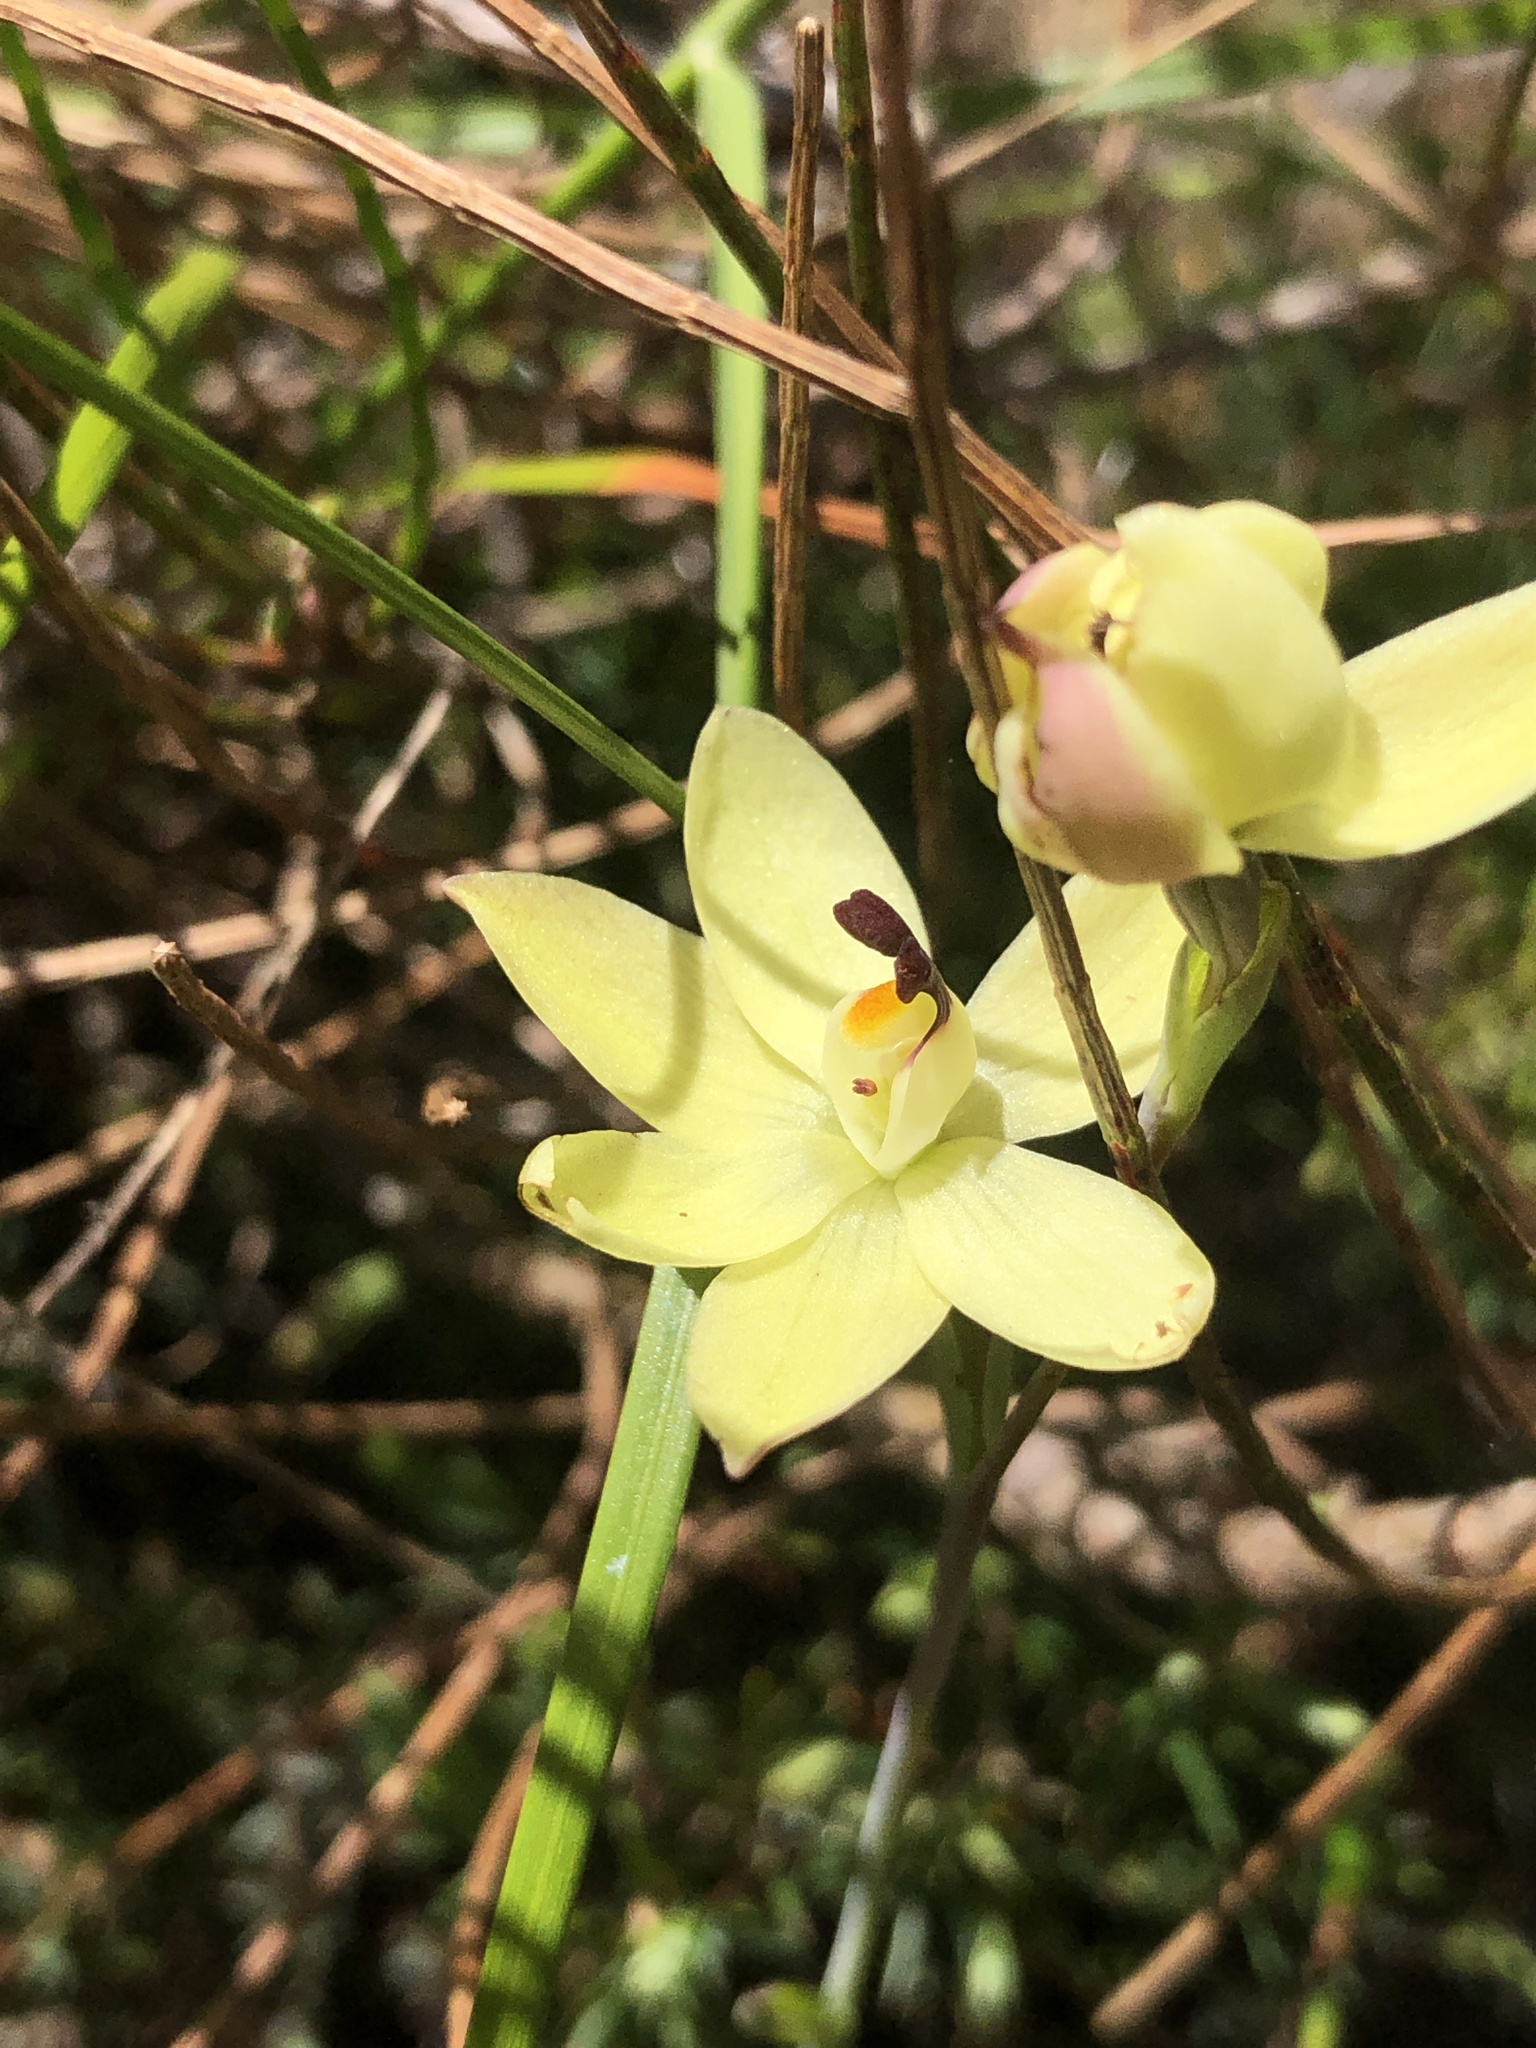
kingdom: Plantae
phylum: Tracheophyta
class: Liliopsida
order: Asparagales
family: Orchidaceae
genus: Thelymitra
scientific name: Thelymitra antennifera
